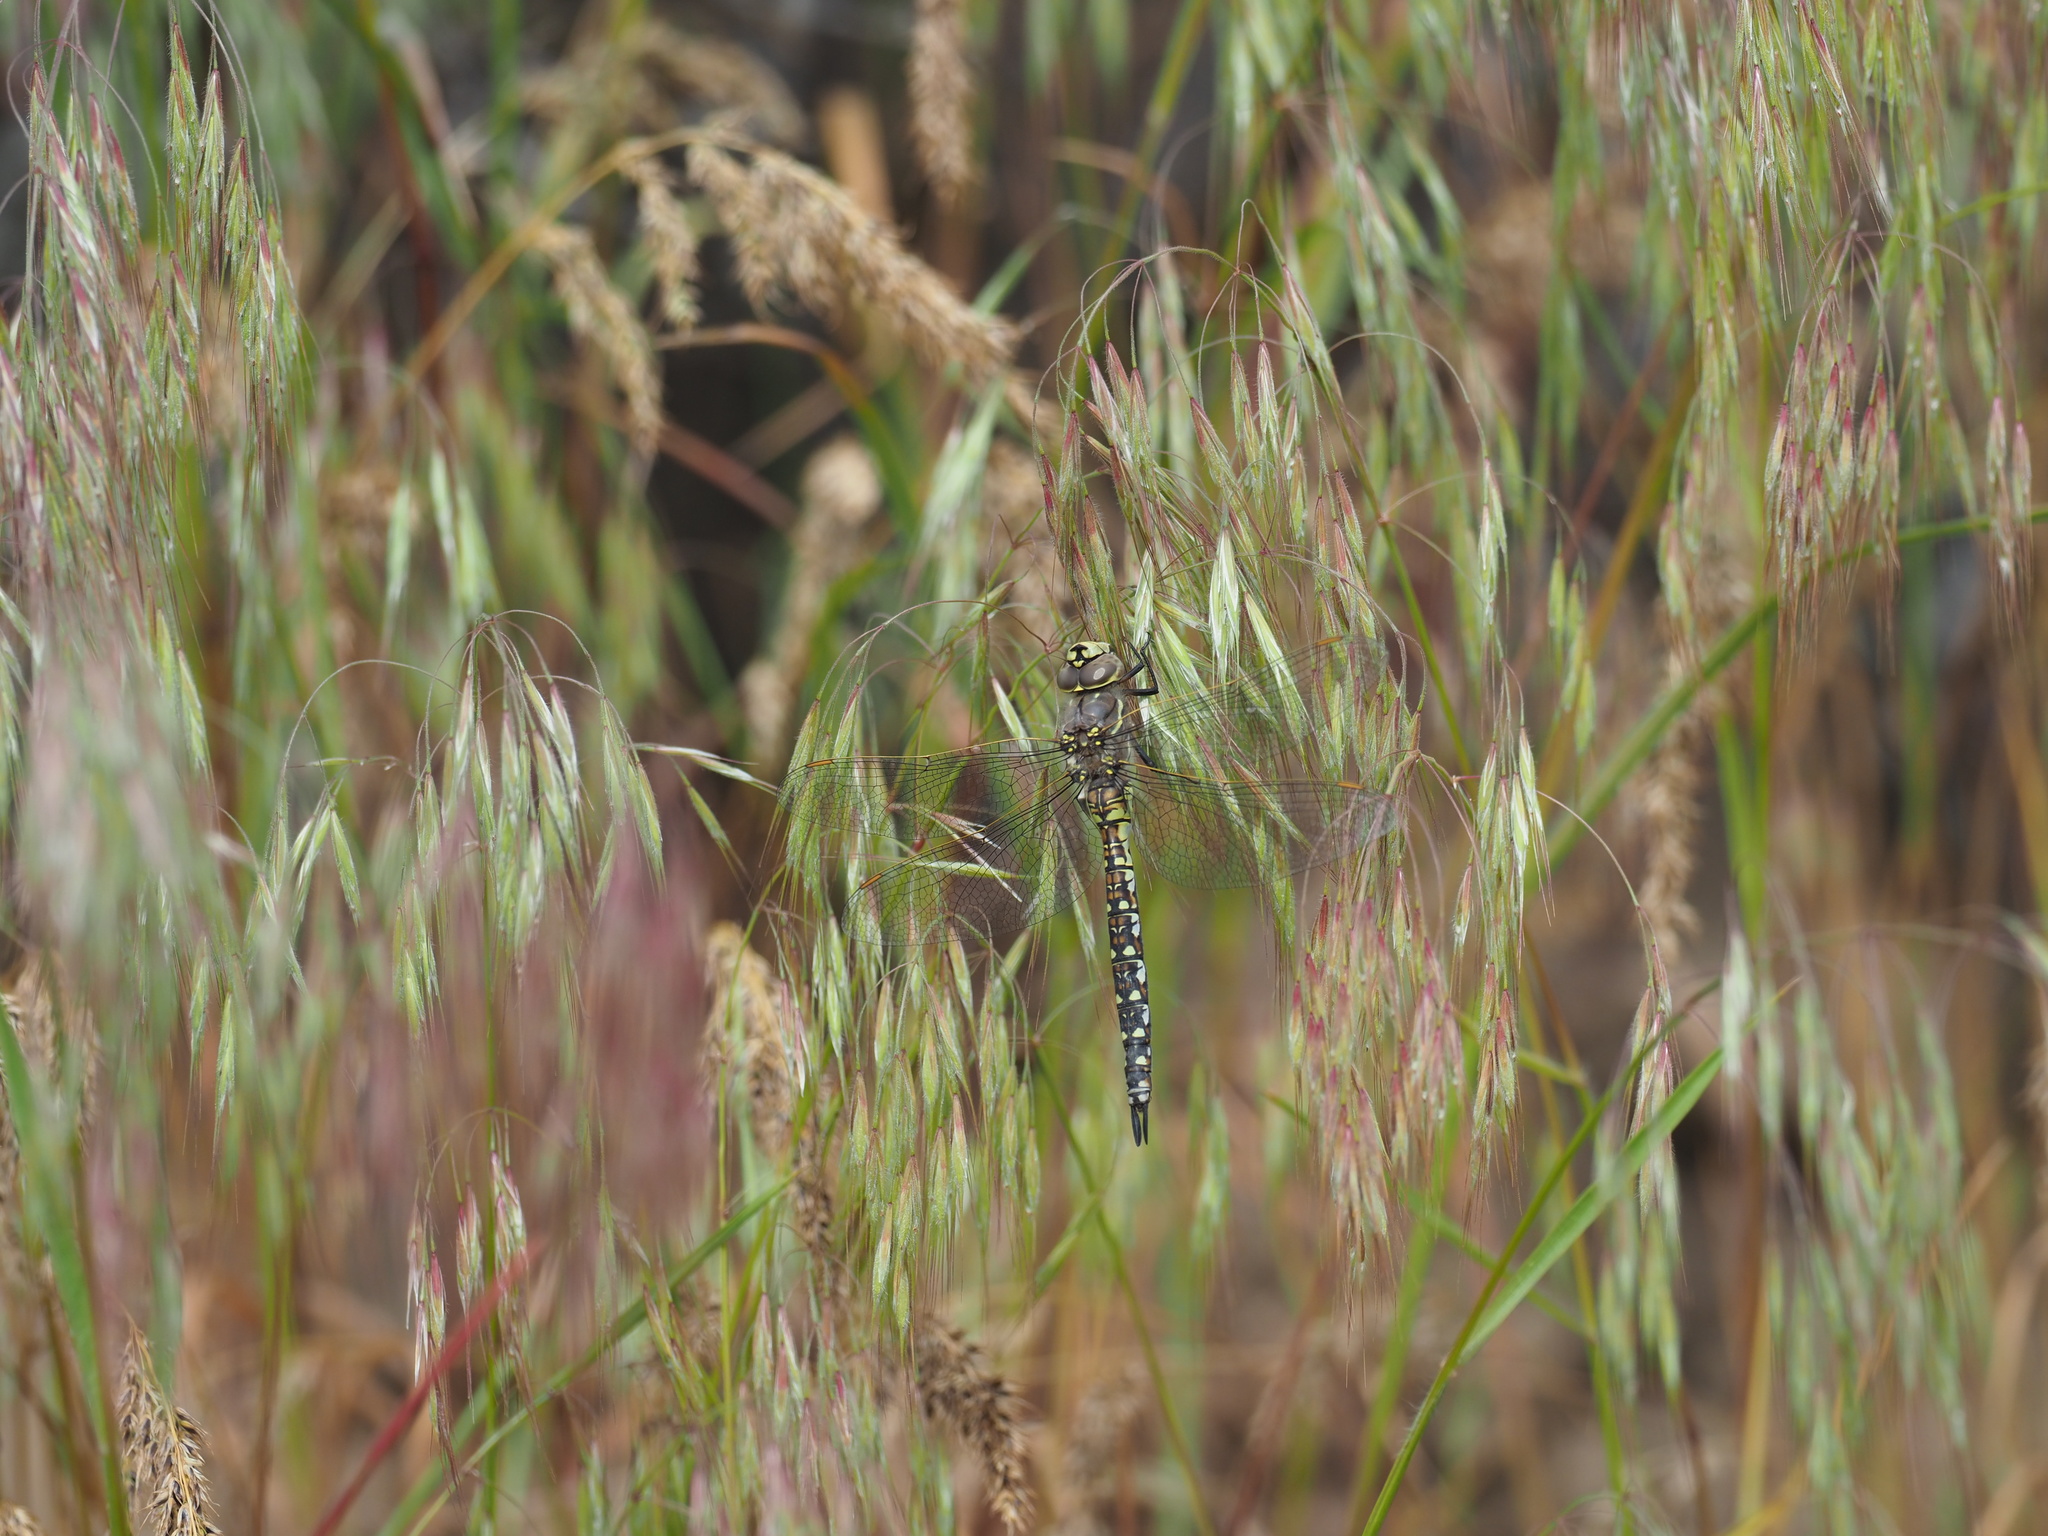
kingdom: Animalia
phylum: Arthropoda
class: Insecta
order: Odonata
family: Aeshnidae
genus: Rhionaeschna
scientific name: Rhionaeschna californica
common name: California darner
